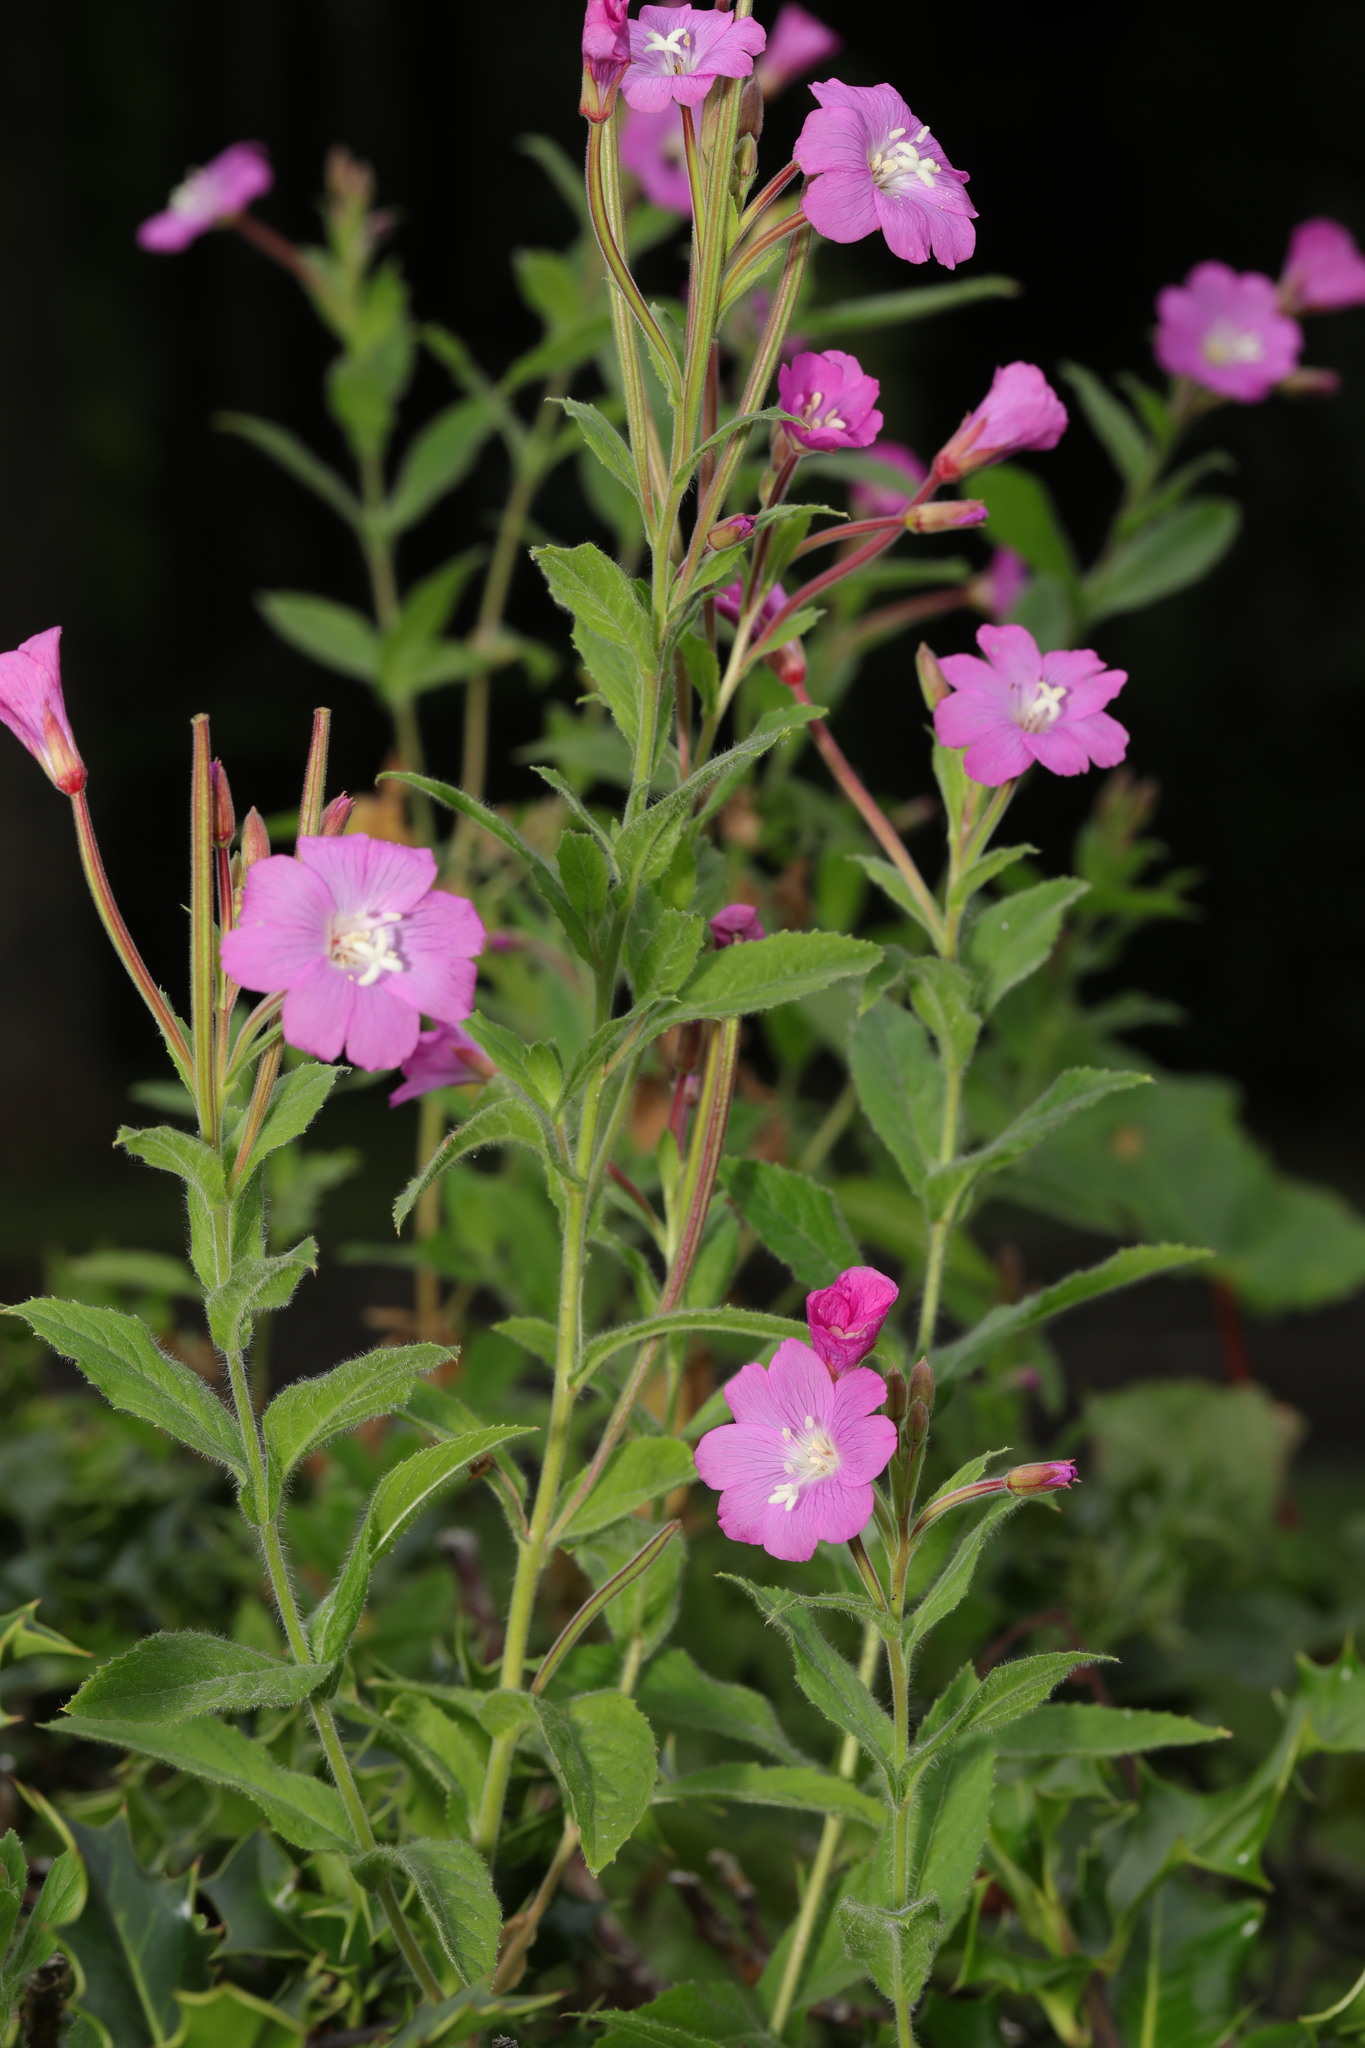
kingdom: Plantae
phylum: Tracheophyta
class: Magnoliopsida
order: Myrtales
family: Onagraceae
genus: Epilobium
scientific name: Epilobium hirsutum
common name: Great willowherb
